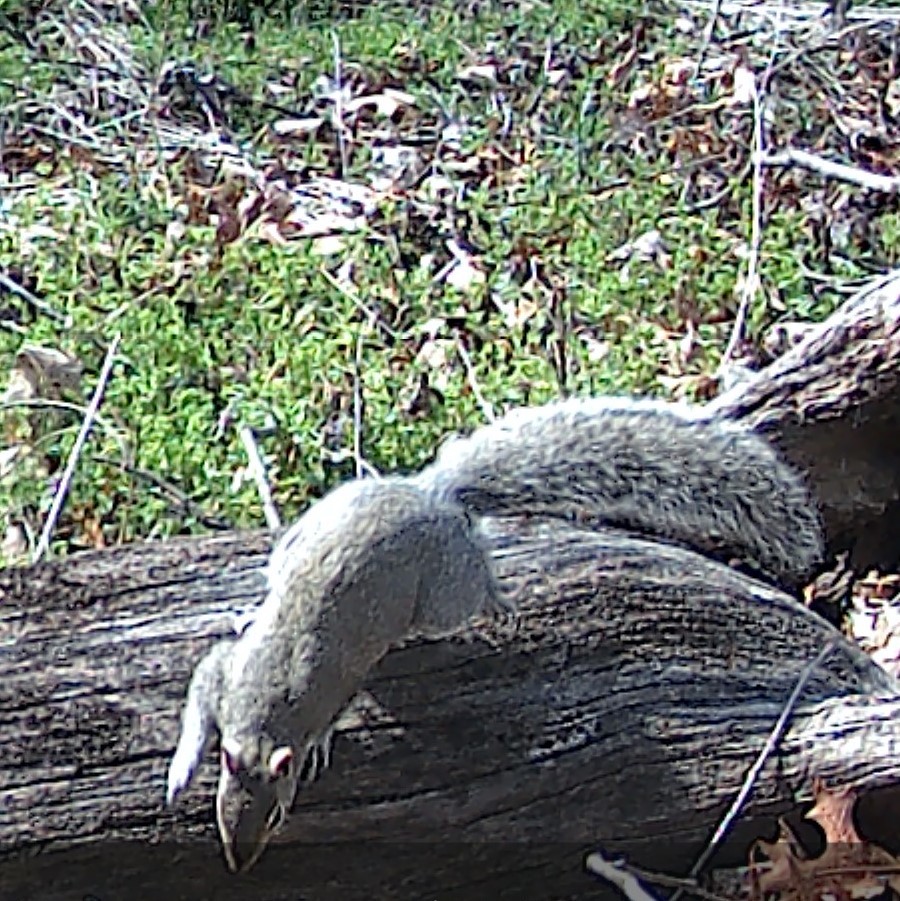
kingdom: Animalia
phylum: Chordata
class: Mammalia
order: Rodentia
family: Sciuridae
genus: Sciurus
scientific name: Sciurus carolinensis
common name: Eastern gray squirrel
